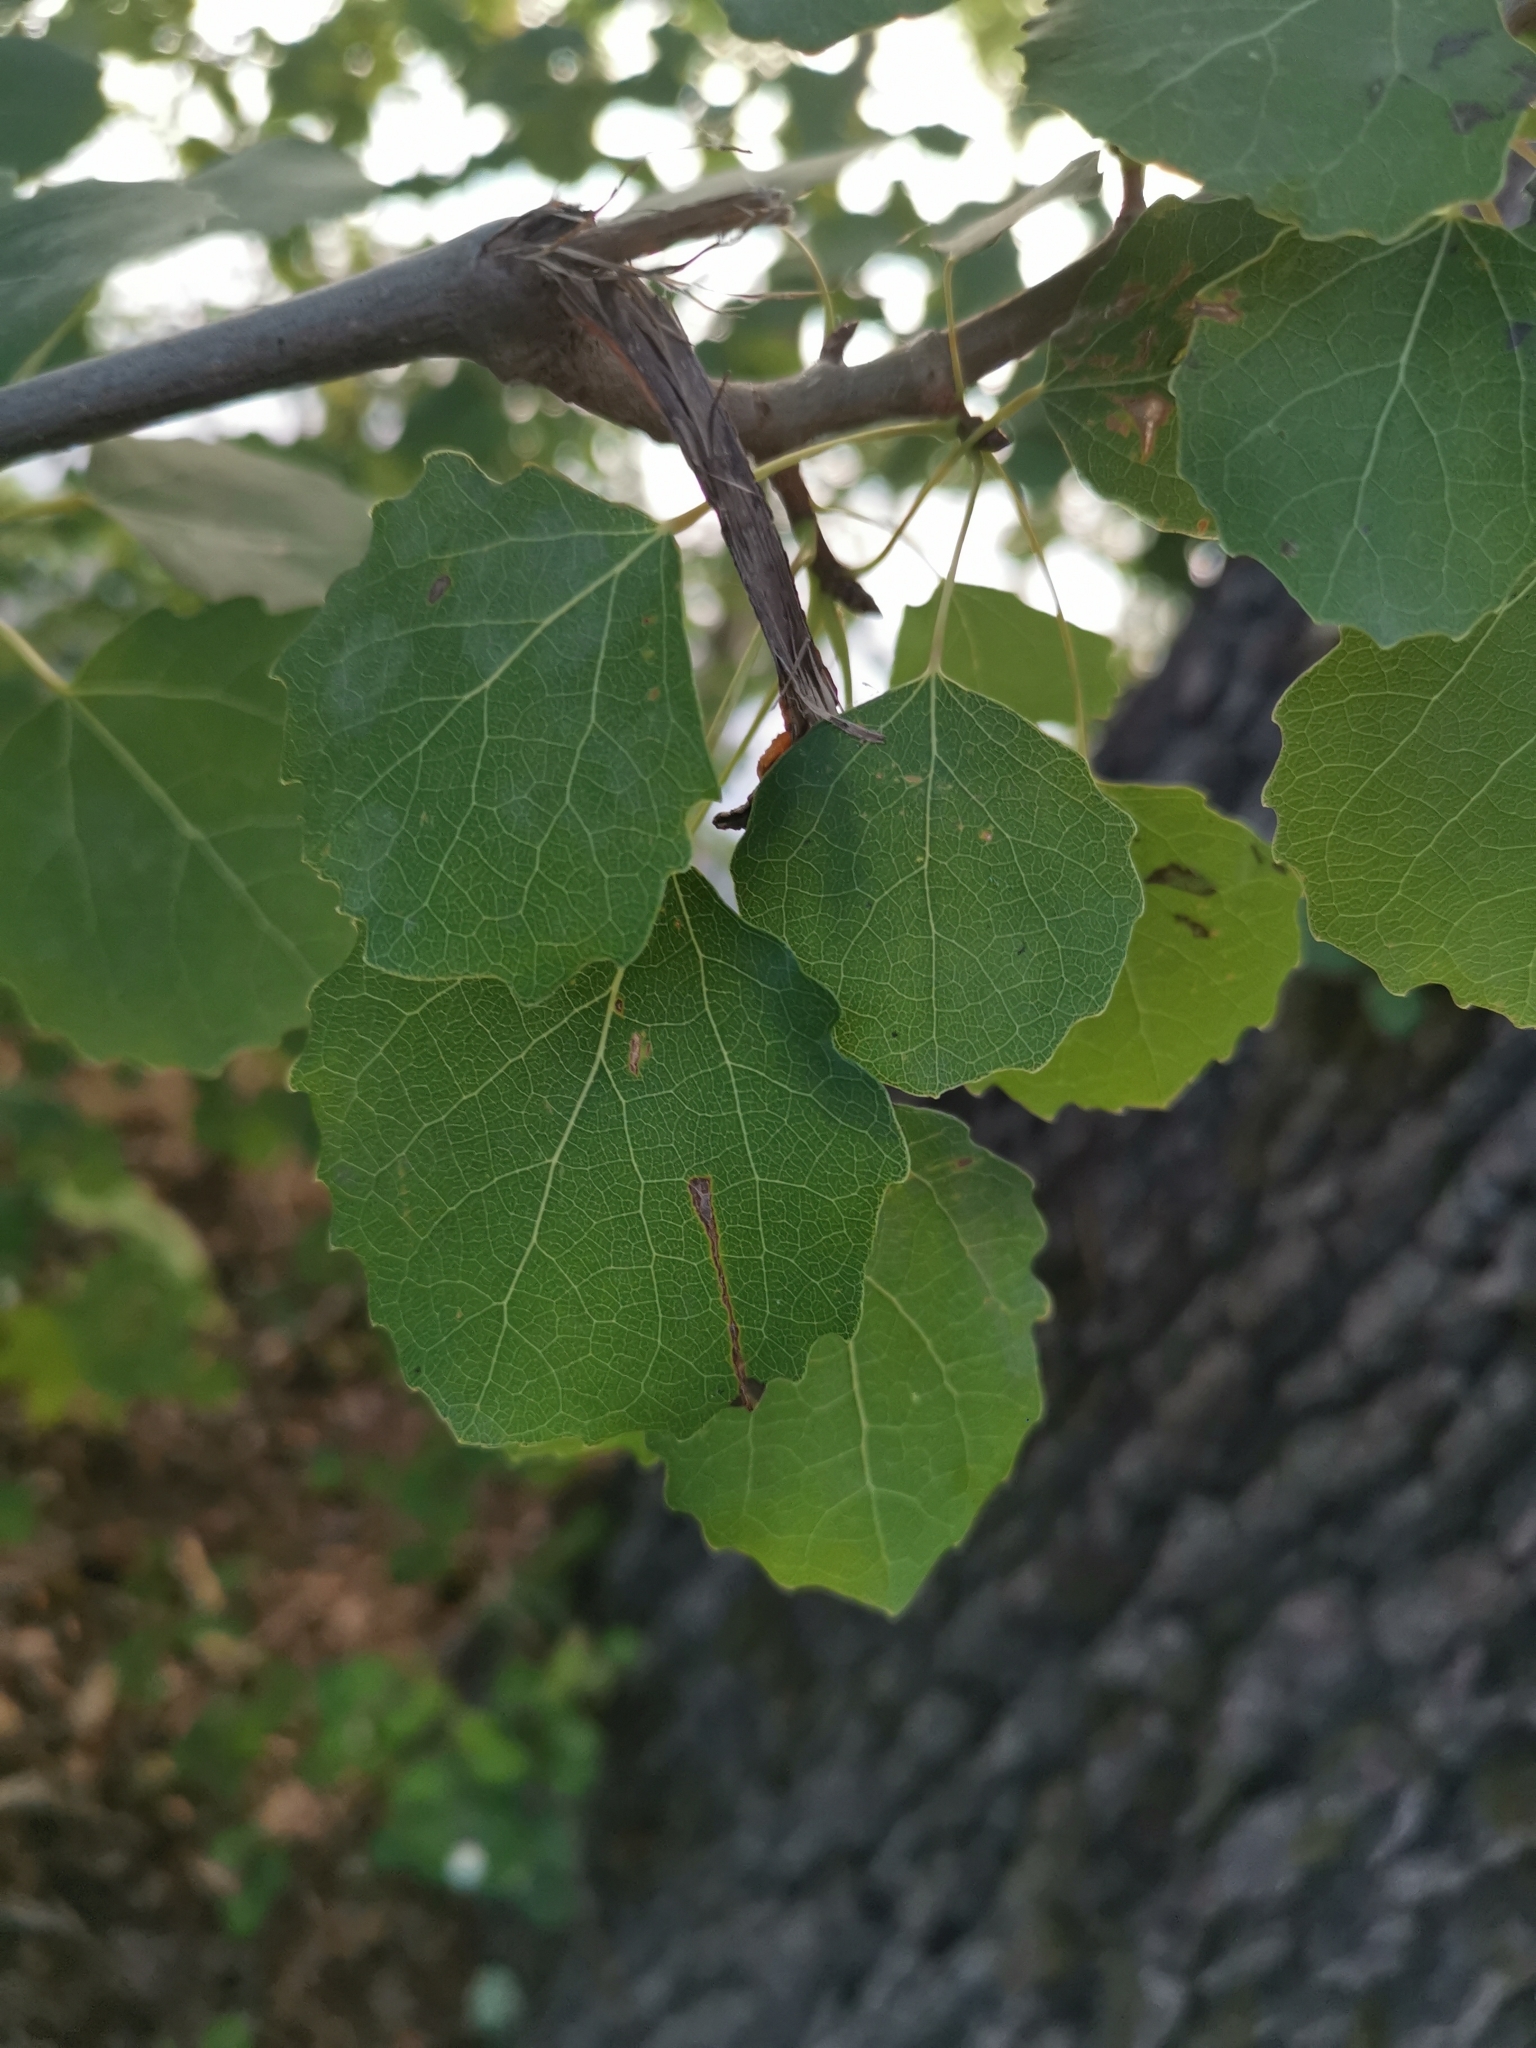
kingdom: Plantae
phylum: Tracheophyta
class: Magnoliopsida
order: Malpighiales
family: Salicaceae
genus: Populus
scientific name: Populus tremula
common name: European aspen
